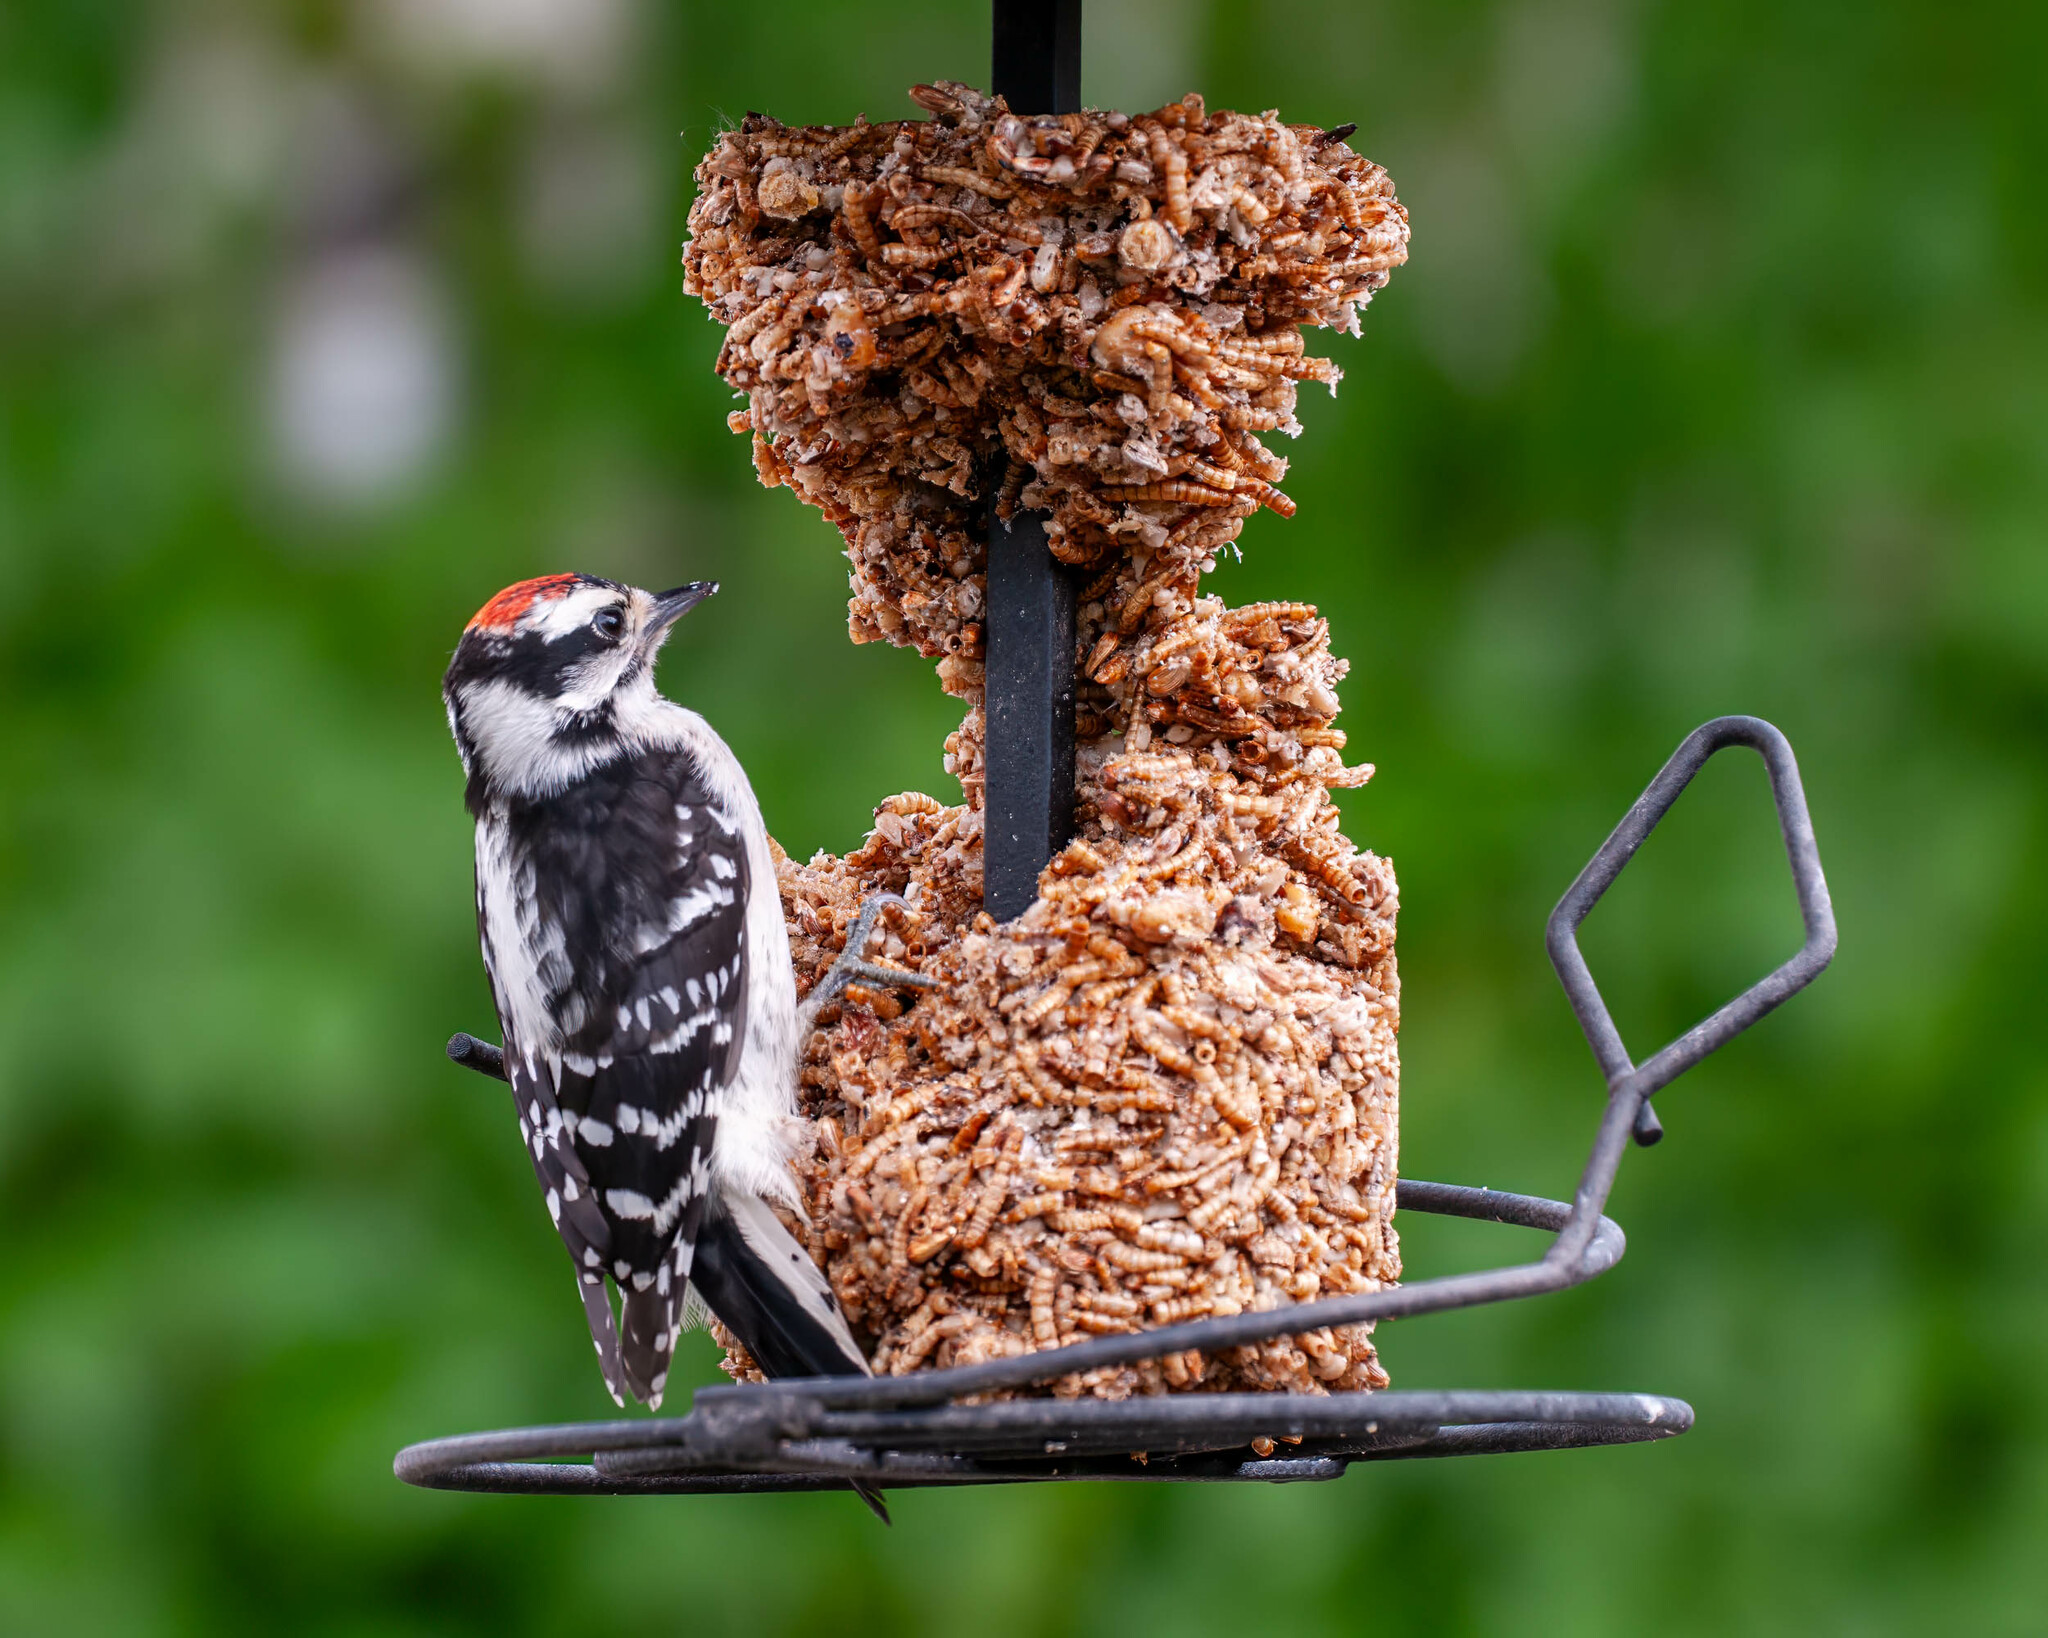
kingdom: Animalia
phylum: Chordata
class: Aves
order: Piciformes
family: Picidae
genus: Dryobates
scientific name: Dryobates pubescens
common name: Downy woodpecker
